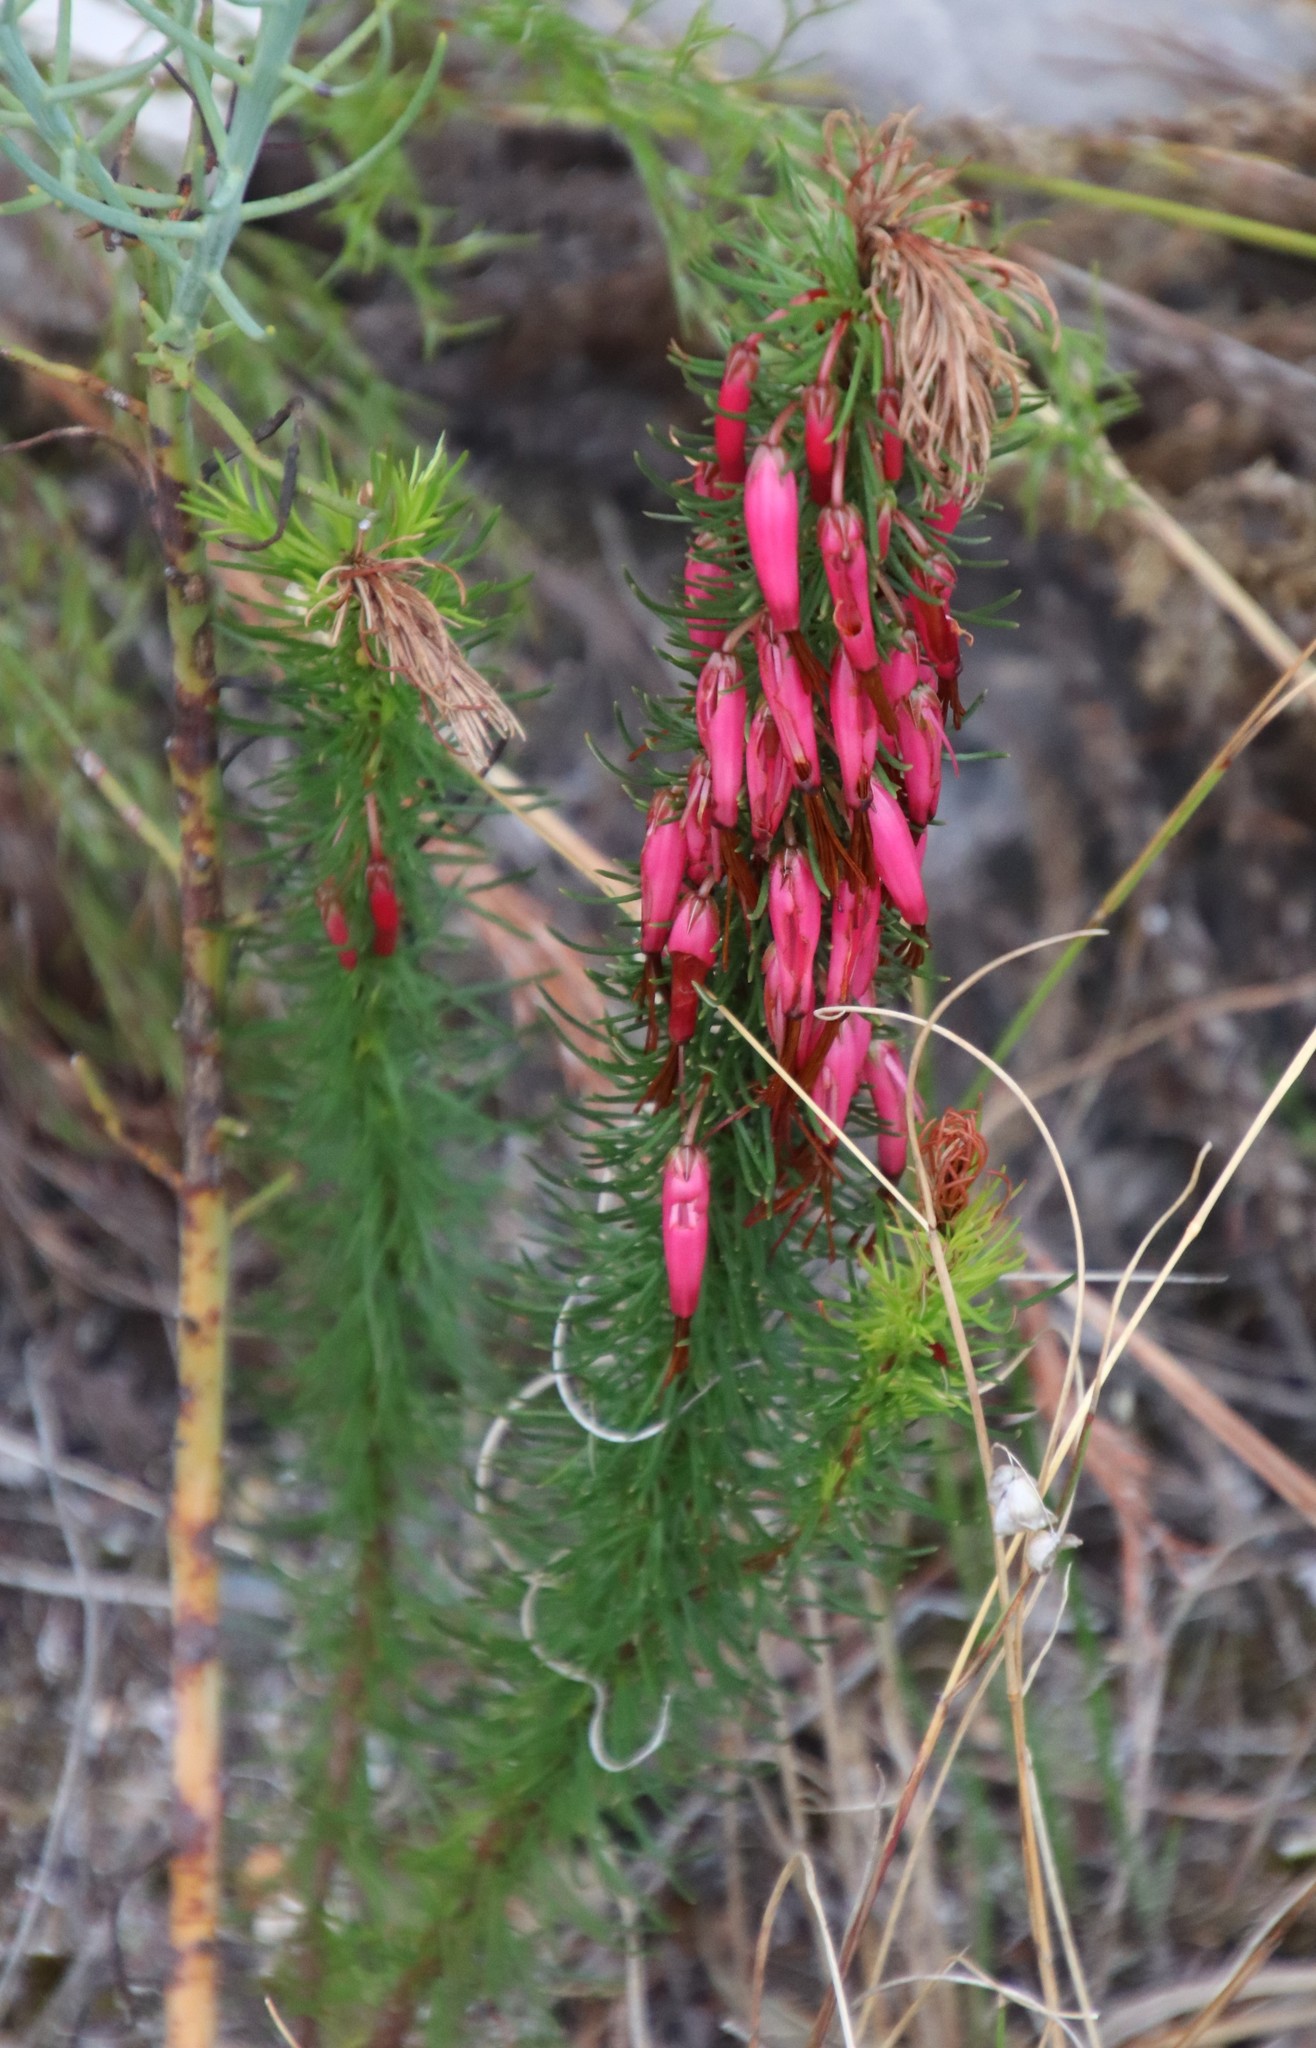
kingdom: Plantae
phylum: Tracheophyta
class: Magnoliopsida
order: Ericales
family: Ericaceae
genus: Erica
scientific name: Erica plukenetii
